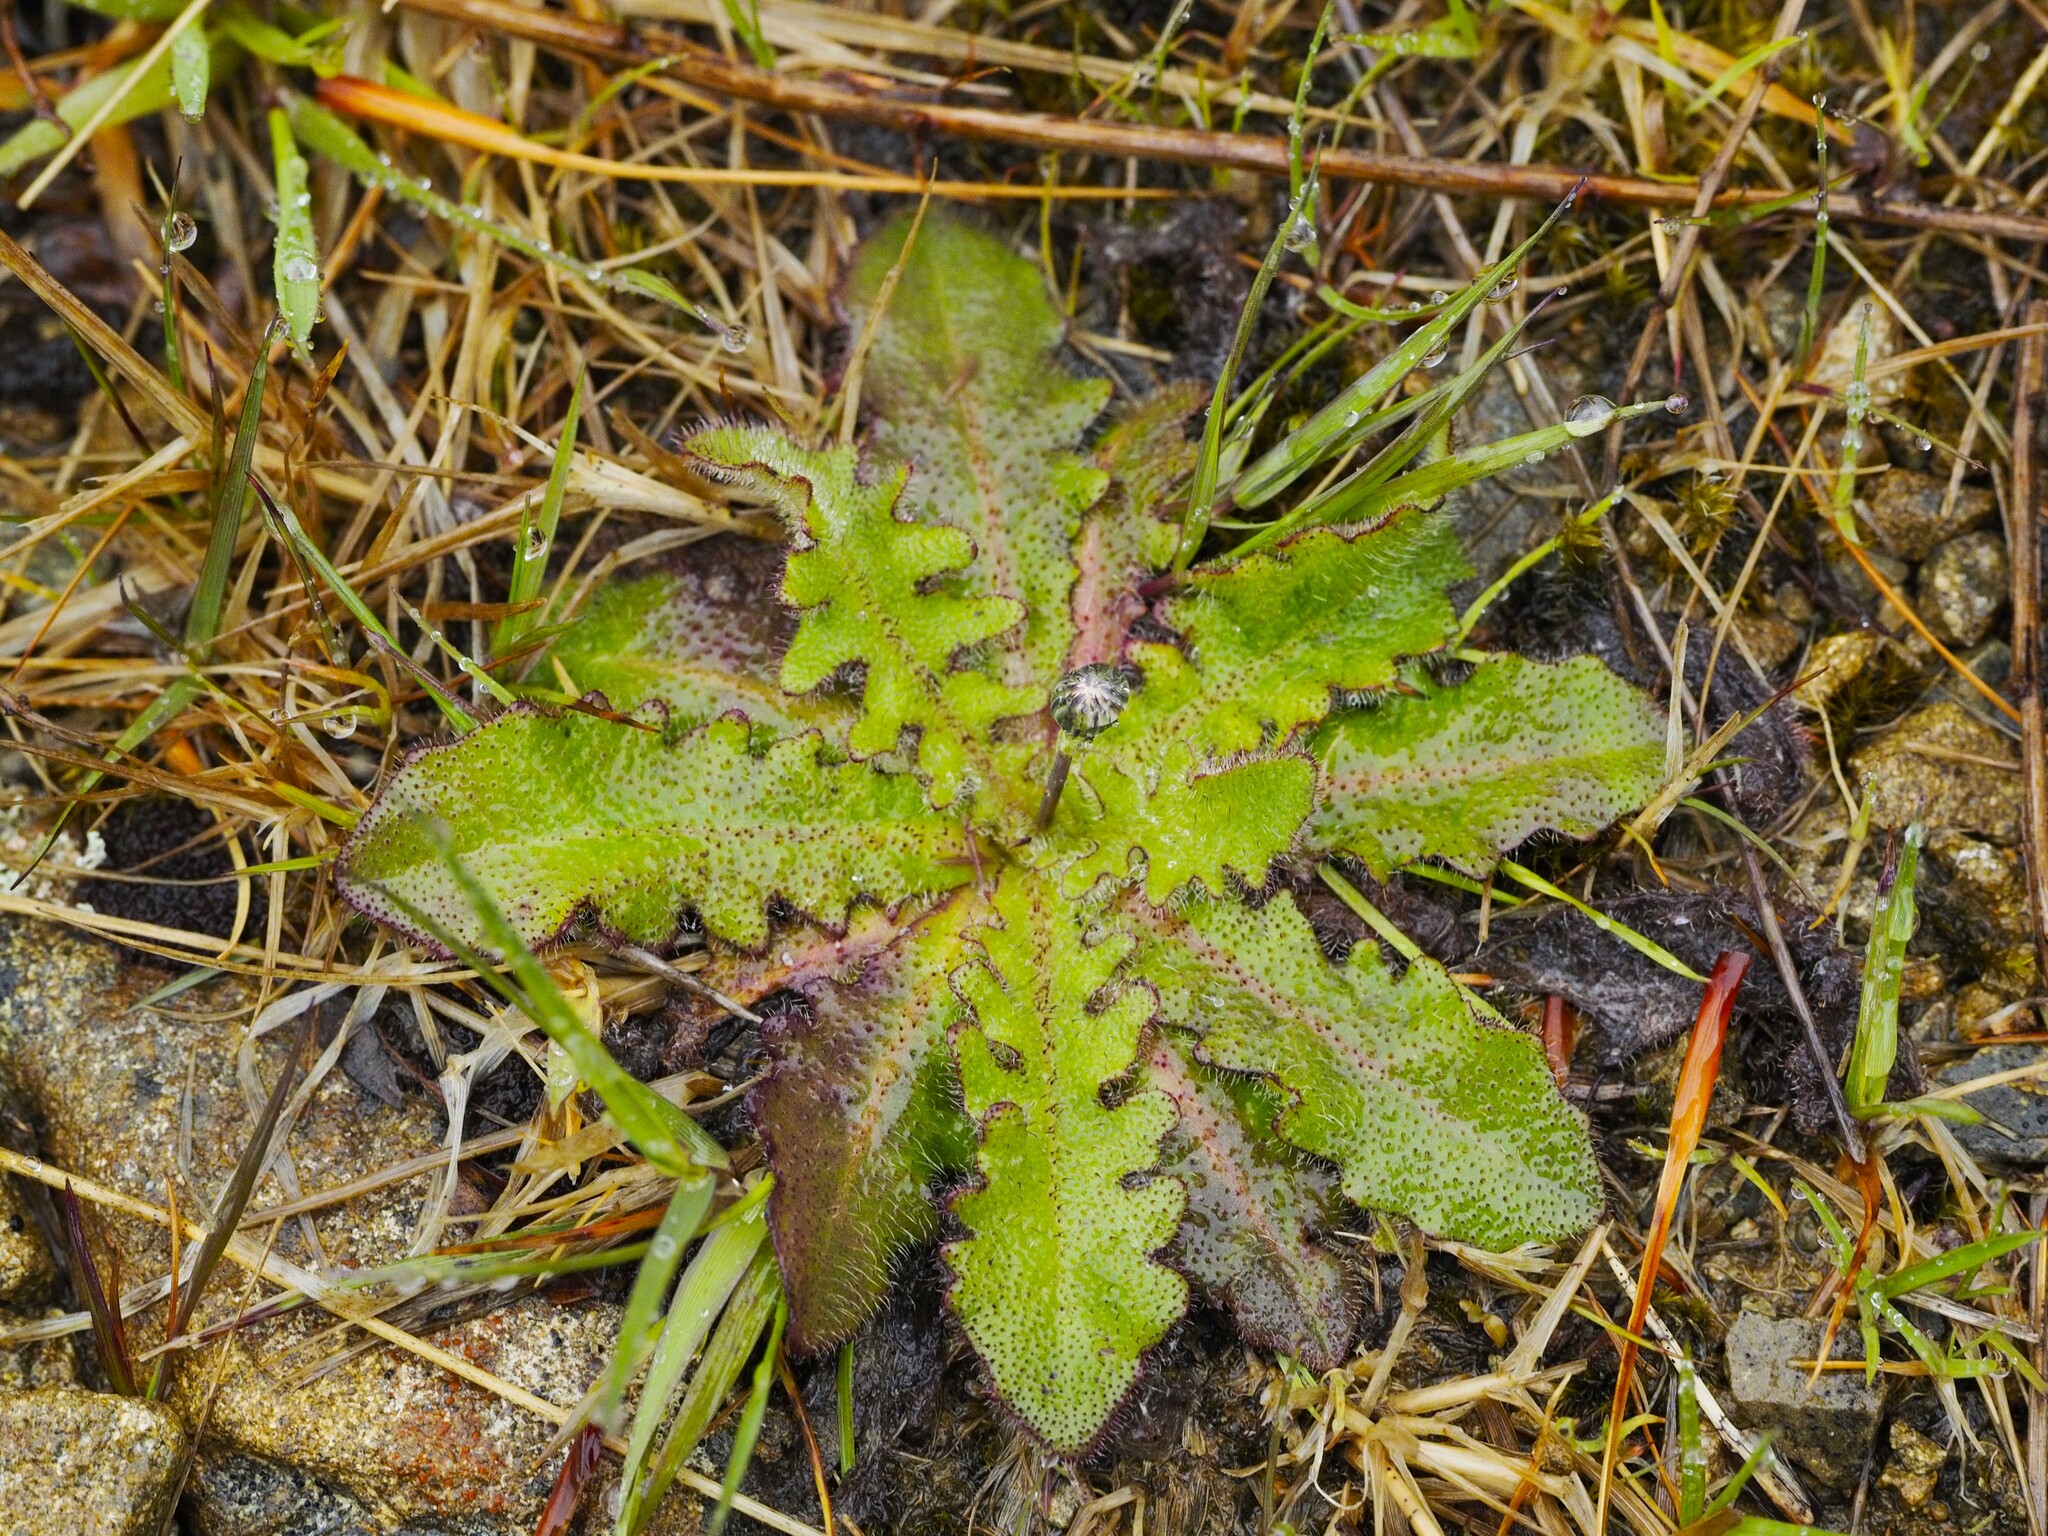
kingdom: Plantae
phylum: Tracheophyta
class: Magnoliopsida
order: Asterales
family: Asteraceae
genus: Hypochaeris
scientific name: Hypochaeris radicata
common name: Flatweed
